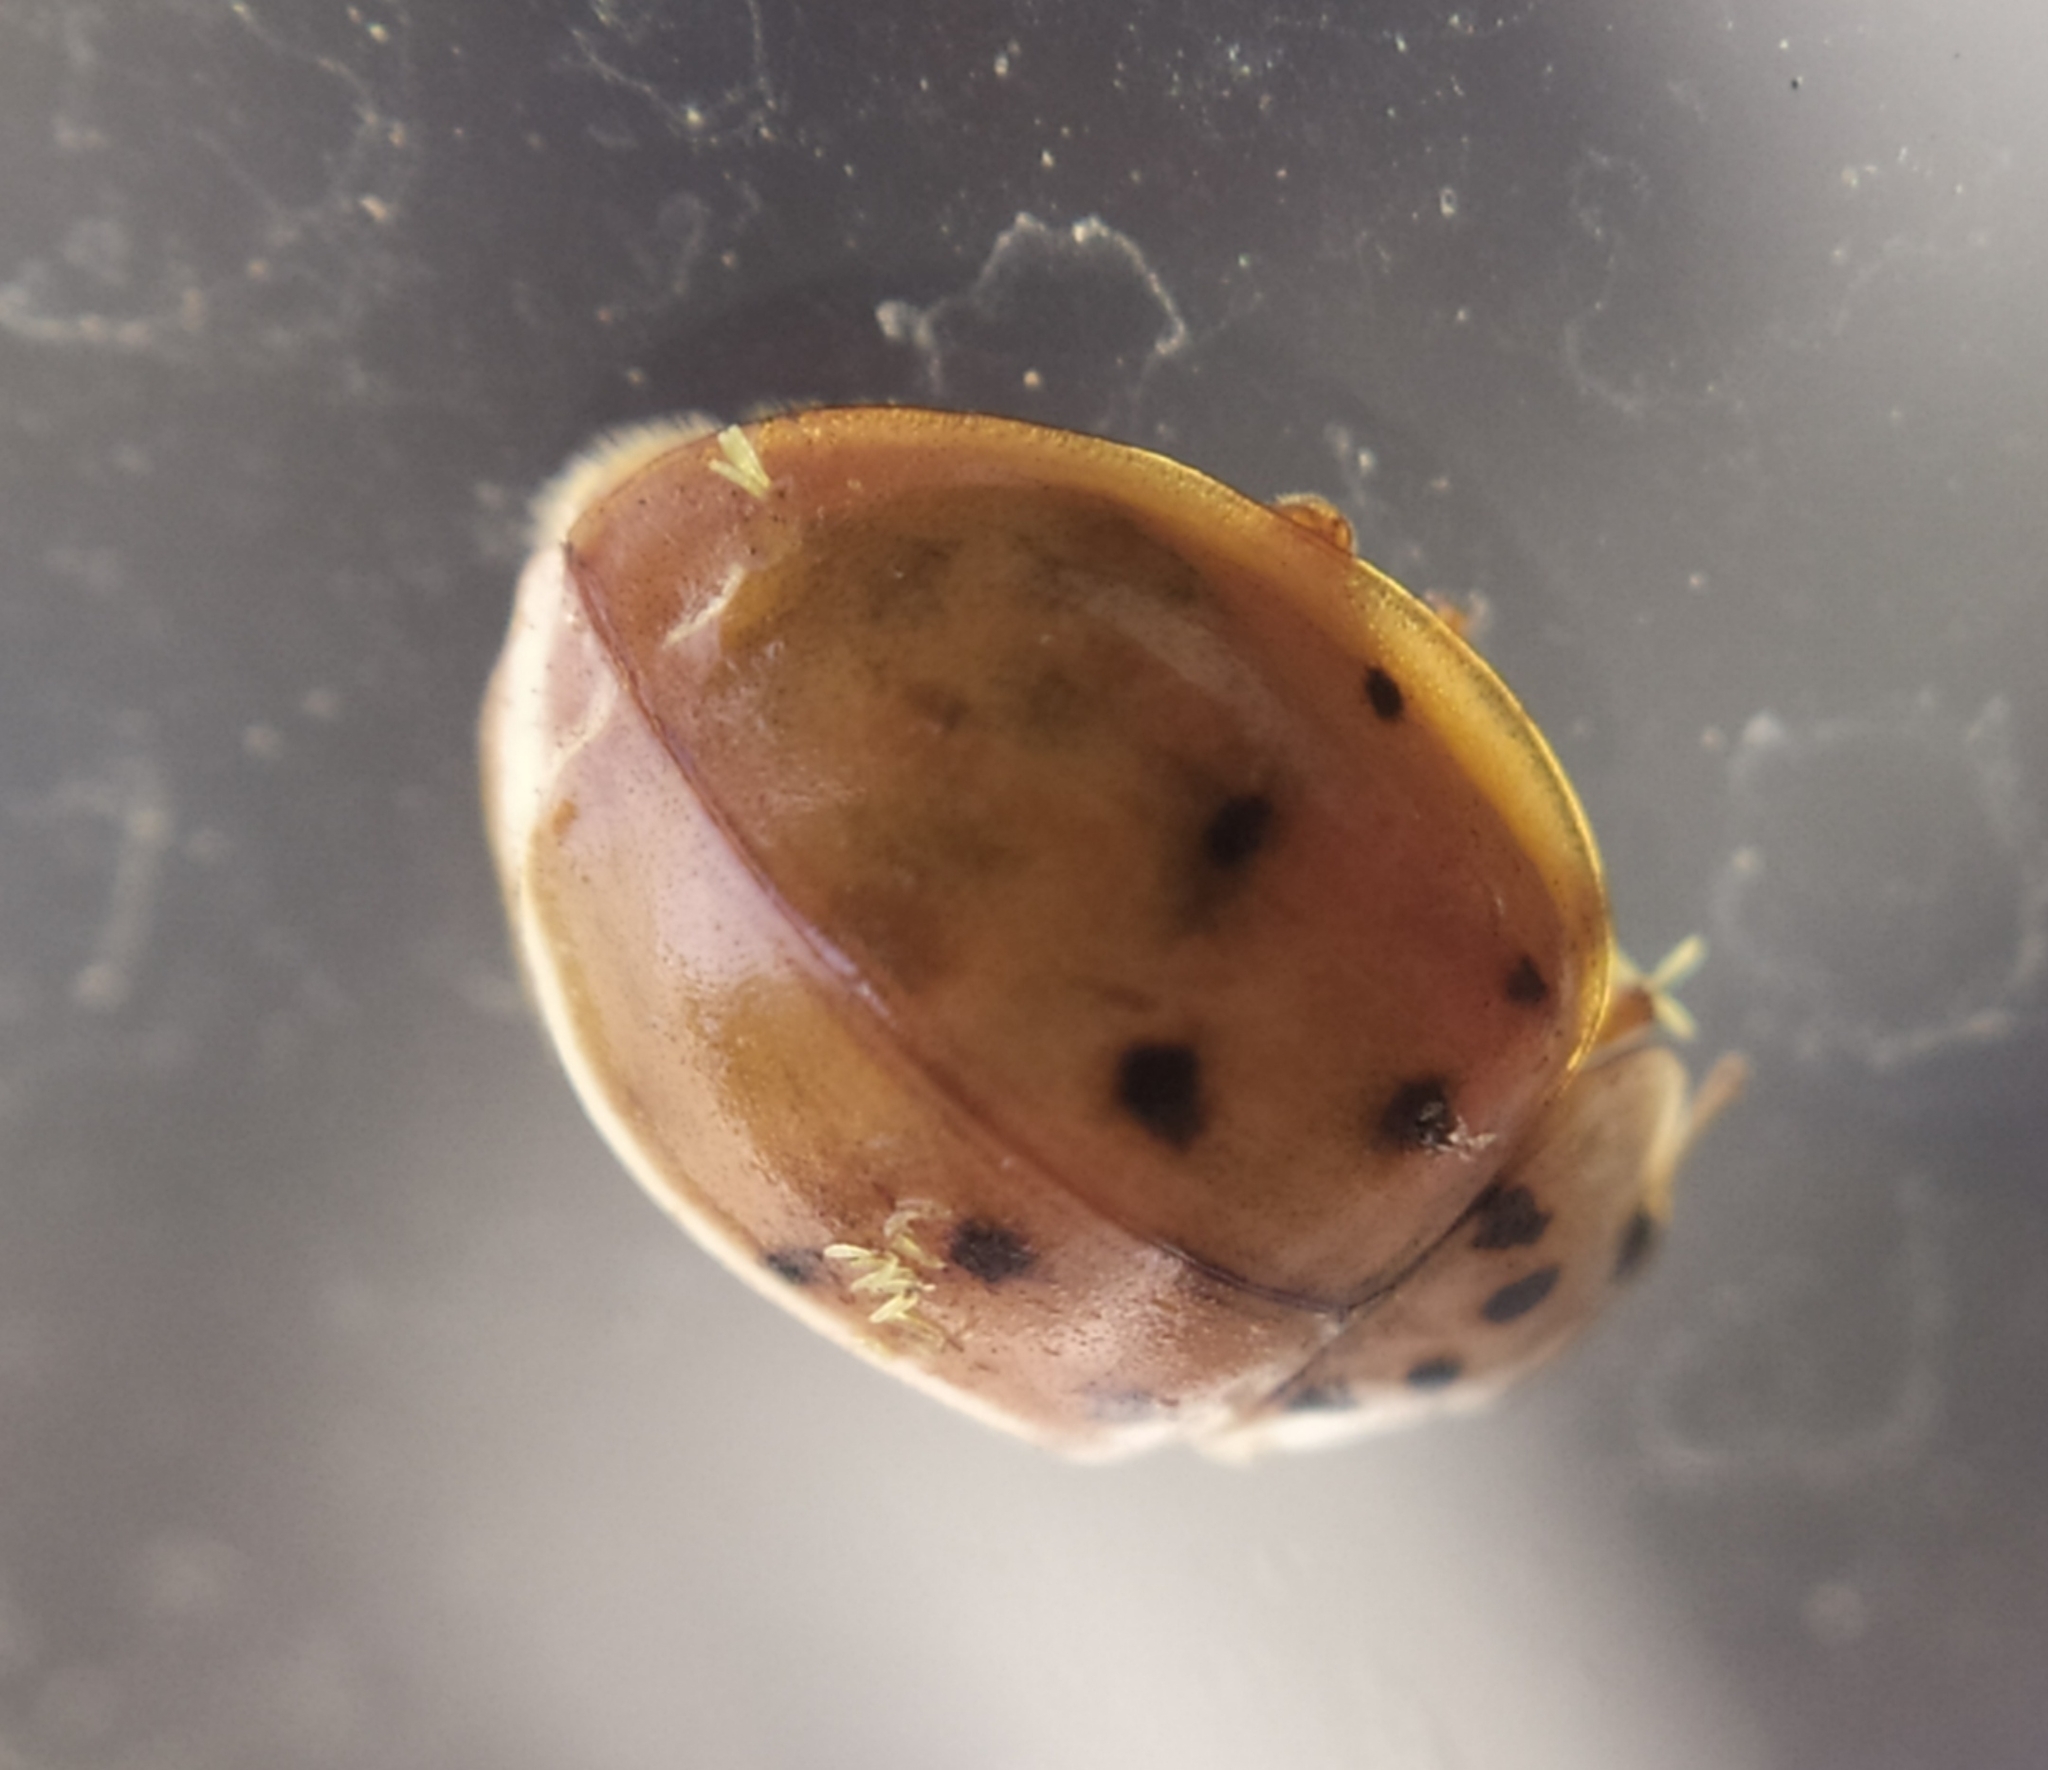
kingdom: Animalia
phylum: Arthropoda
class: Insecta
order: Coleoptera
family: Coccinellidae
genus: Harmonia
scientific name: Harmonia axyridis
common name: Harlequin ladybird
